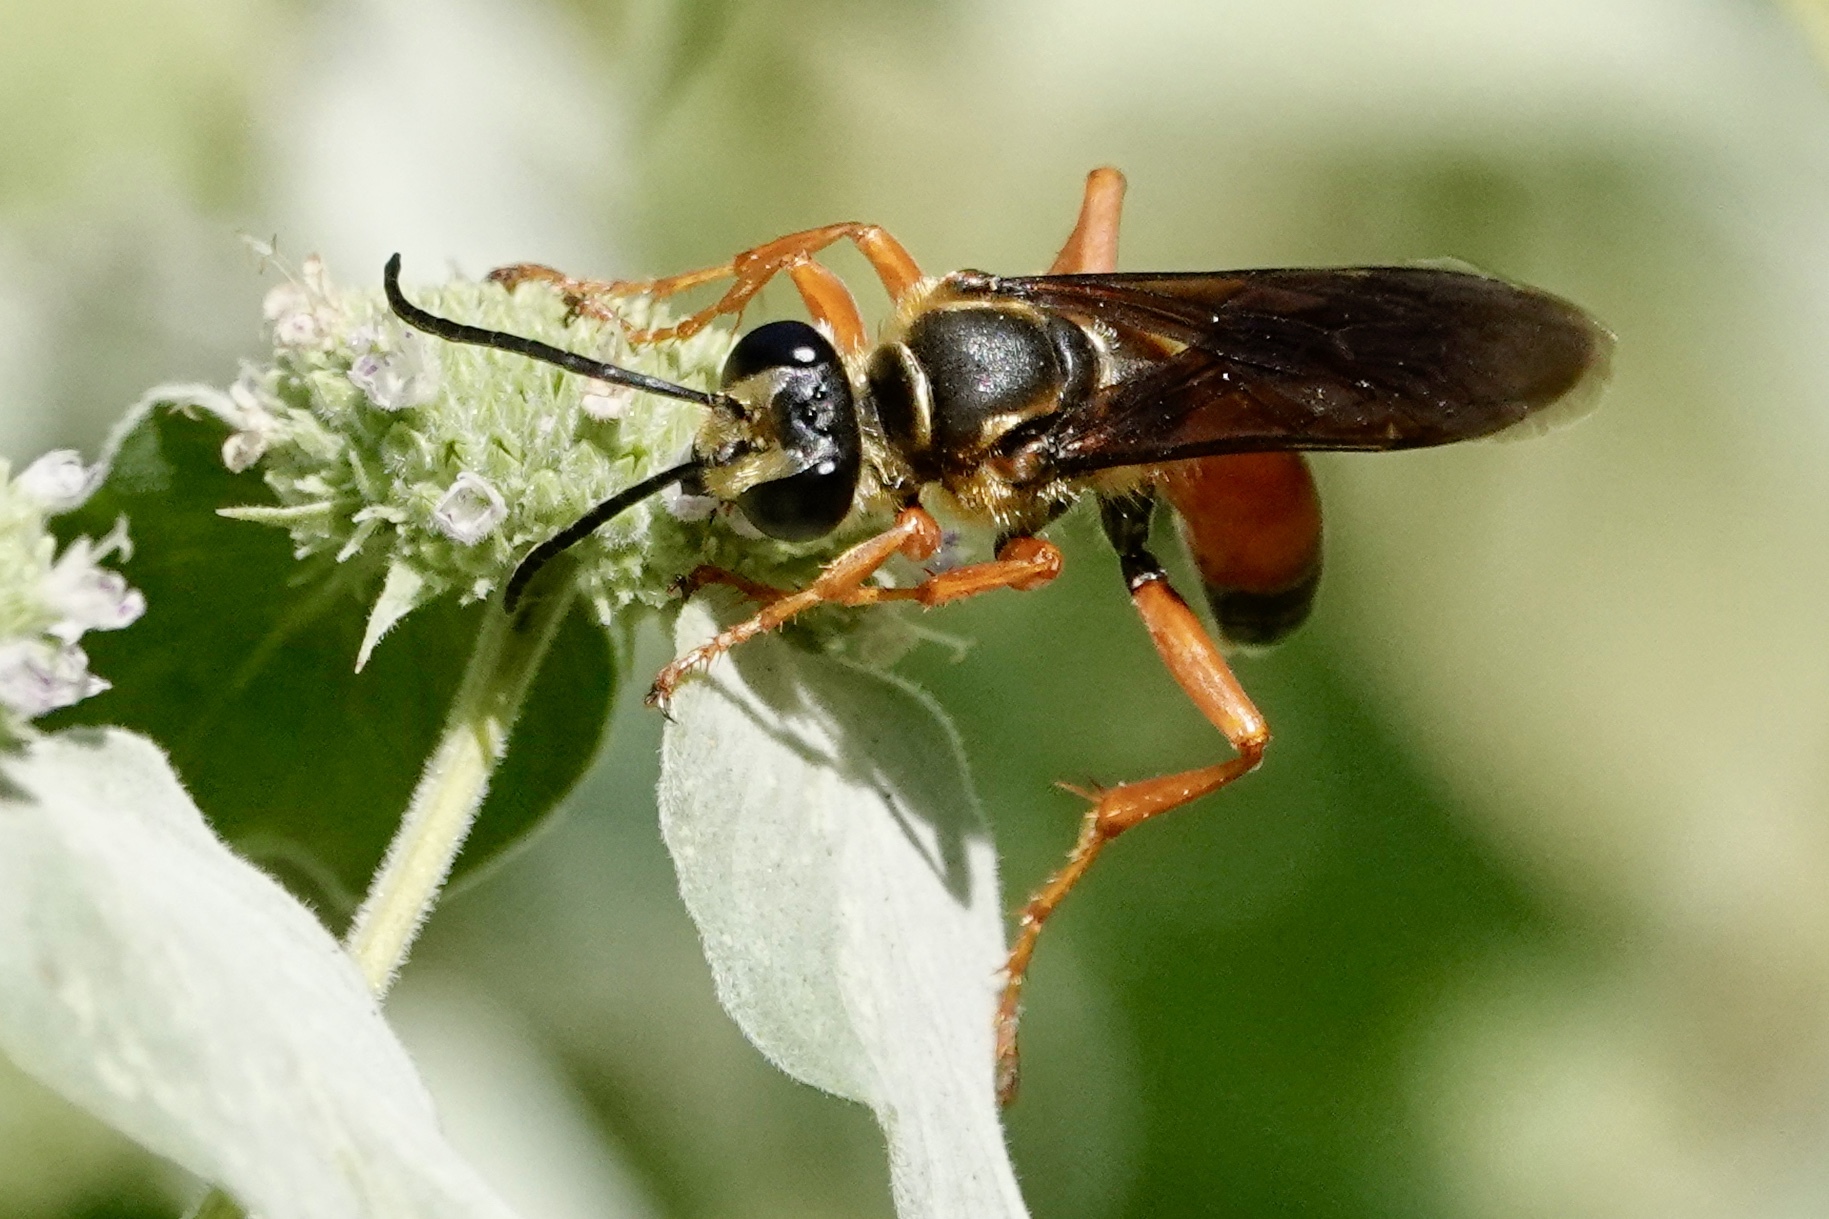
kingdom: Animalia
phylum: Arthropoda
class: Insecta
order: Hymenoptera
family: Sphecidae
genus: Sphex
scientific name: Sphex ichneumoneus
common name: Great golden digger wasp
